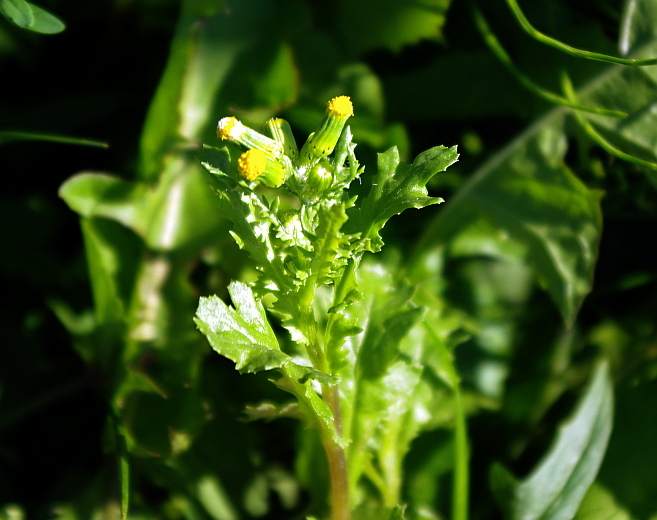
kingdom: Plantae
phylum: Tracheophyta
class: Magnoliopsida
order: Asterales
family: Asteraceae
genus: Senecio
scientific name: Senecio vulgaris
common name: Old-man-in-the-spring
